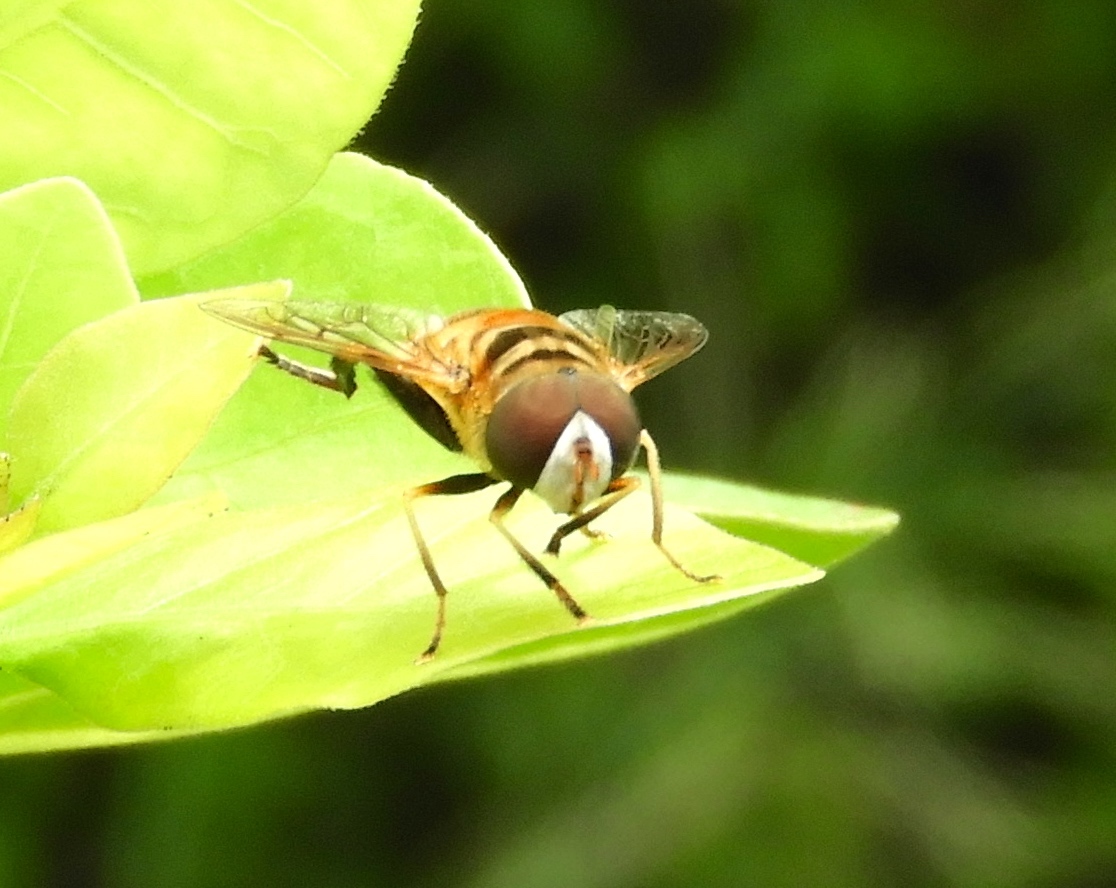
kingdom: Animalia
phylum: Arthropoda
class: Insecta
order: Diptera
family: Syrphidae
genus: Palpada
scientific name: Palpada
